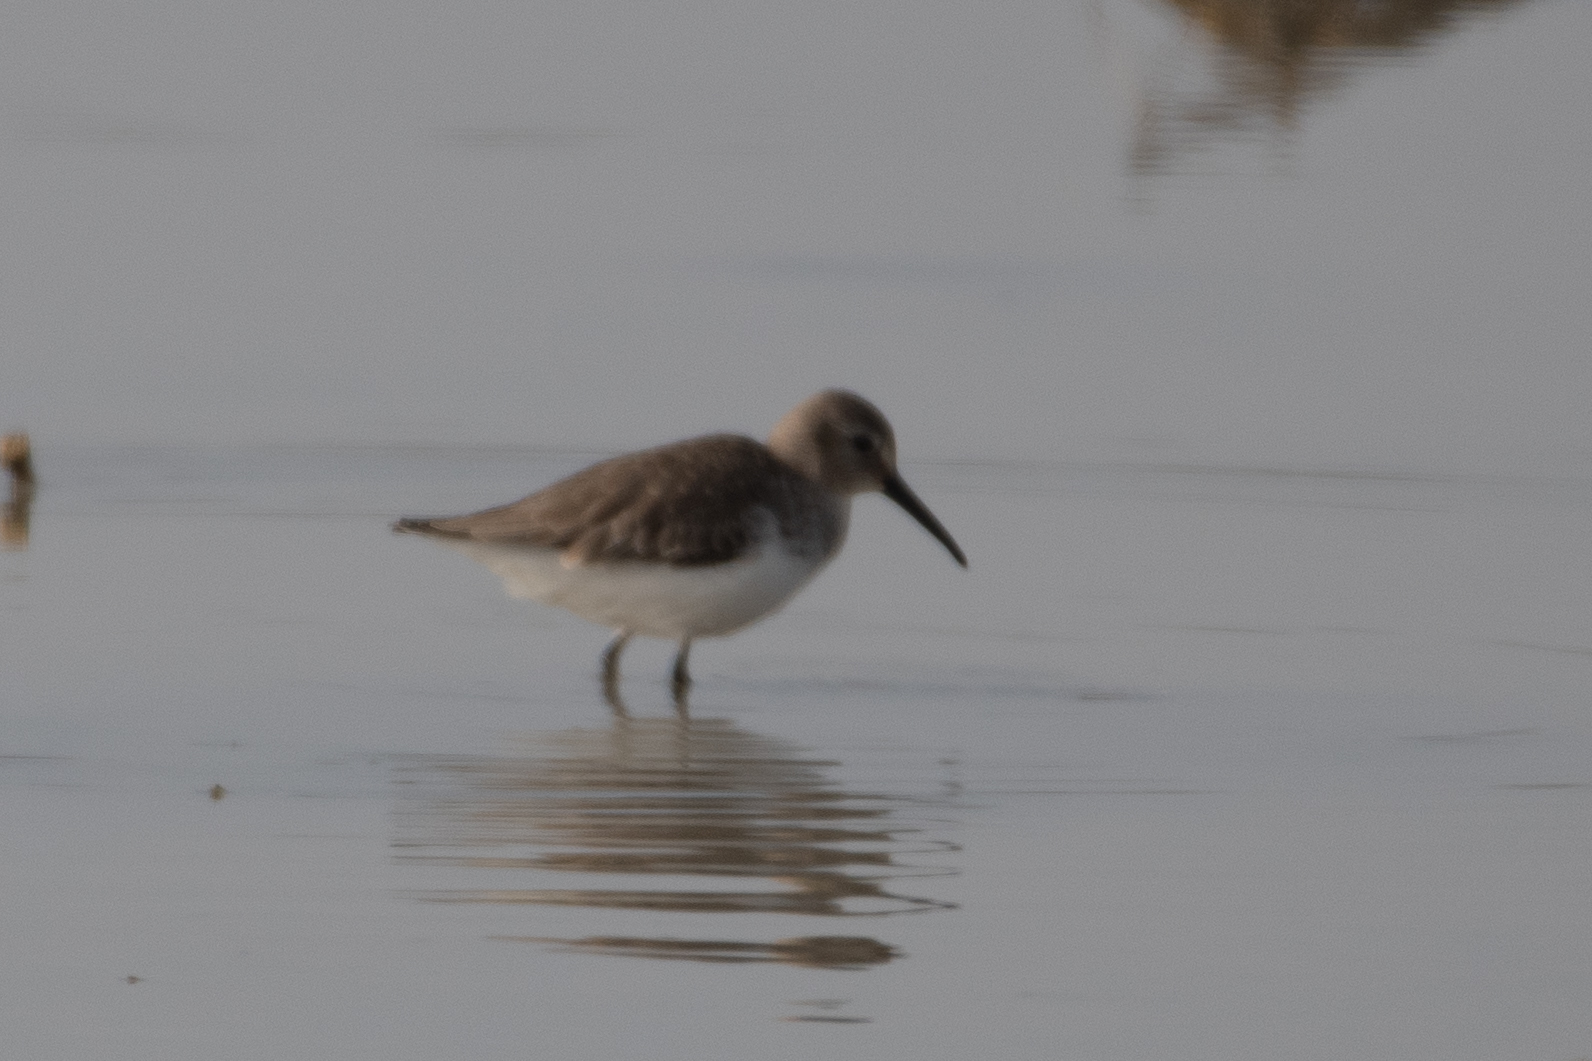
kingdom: Animalia
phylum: Chordata
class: Aves
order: Charadriiformes
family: Scolopacidae
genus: Calidris
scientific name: Calidris alpina
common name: Dunlin
